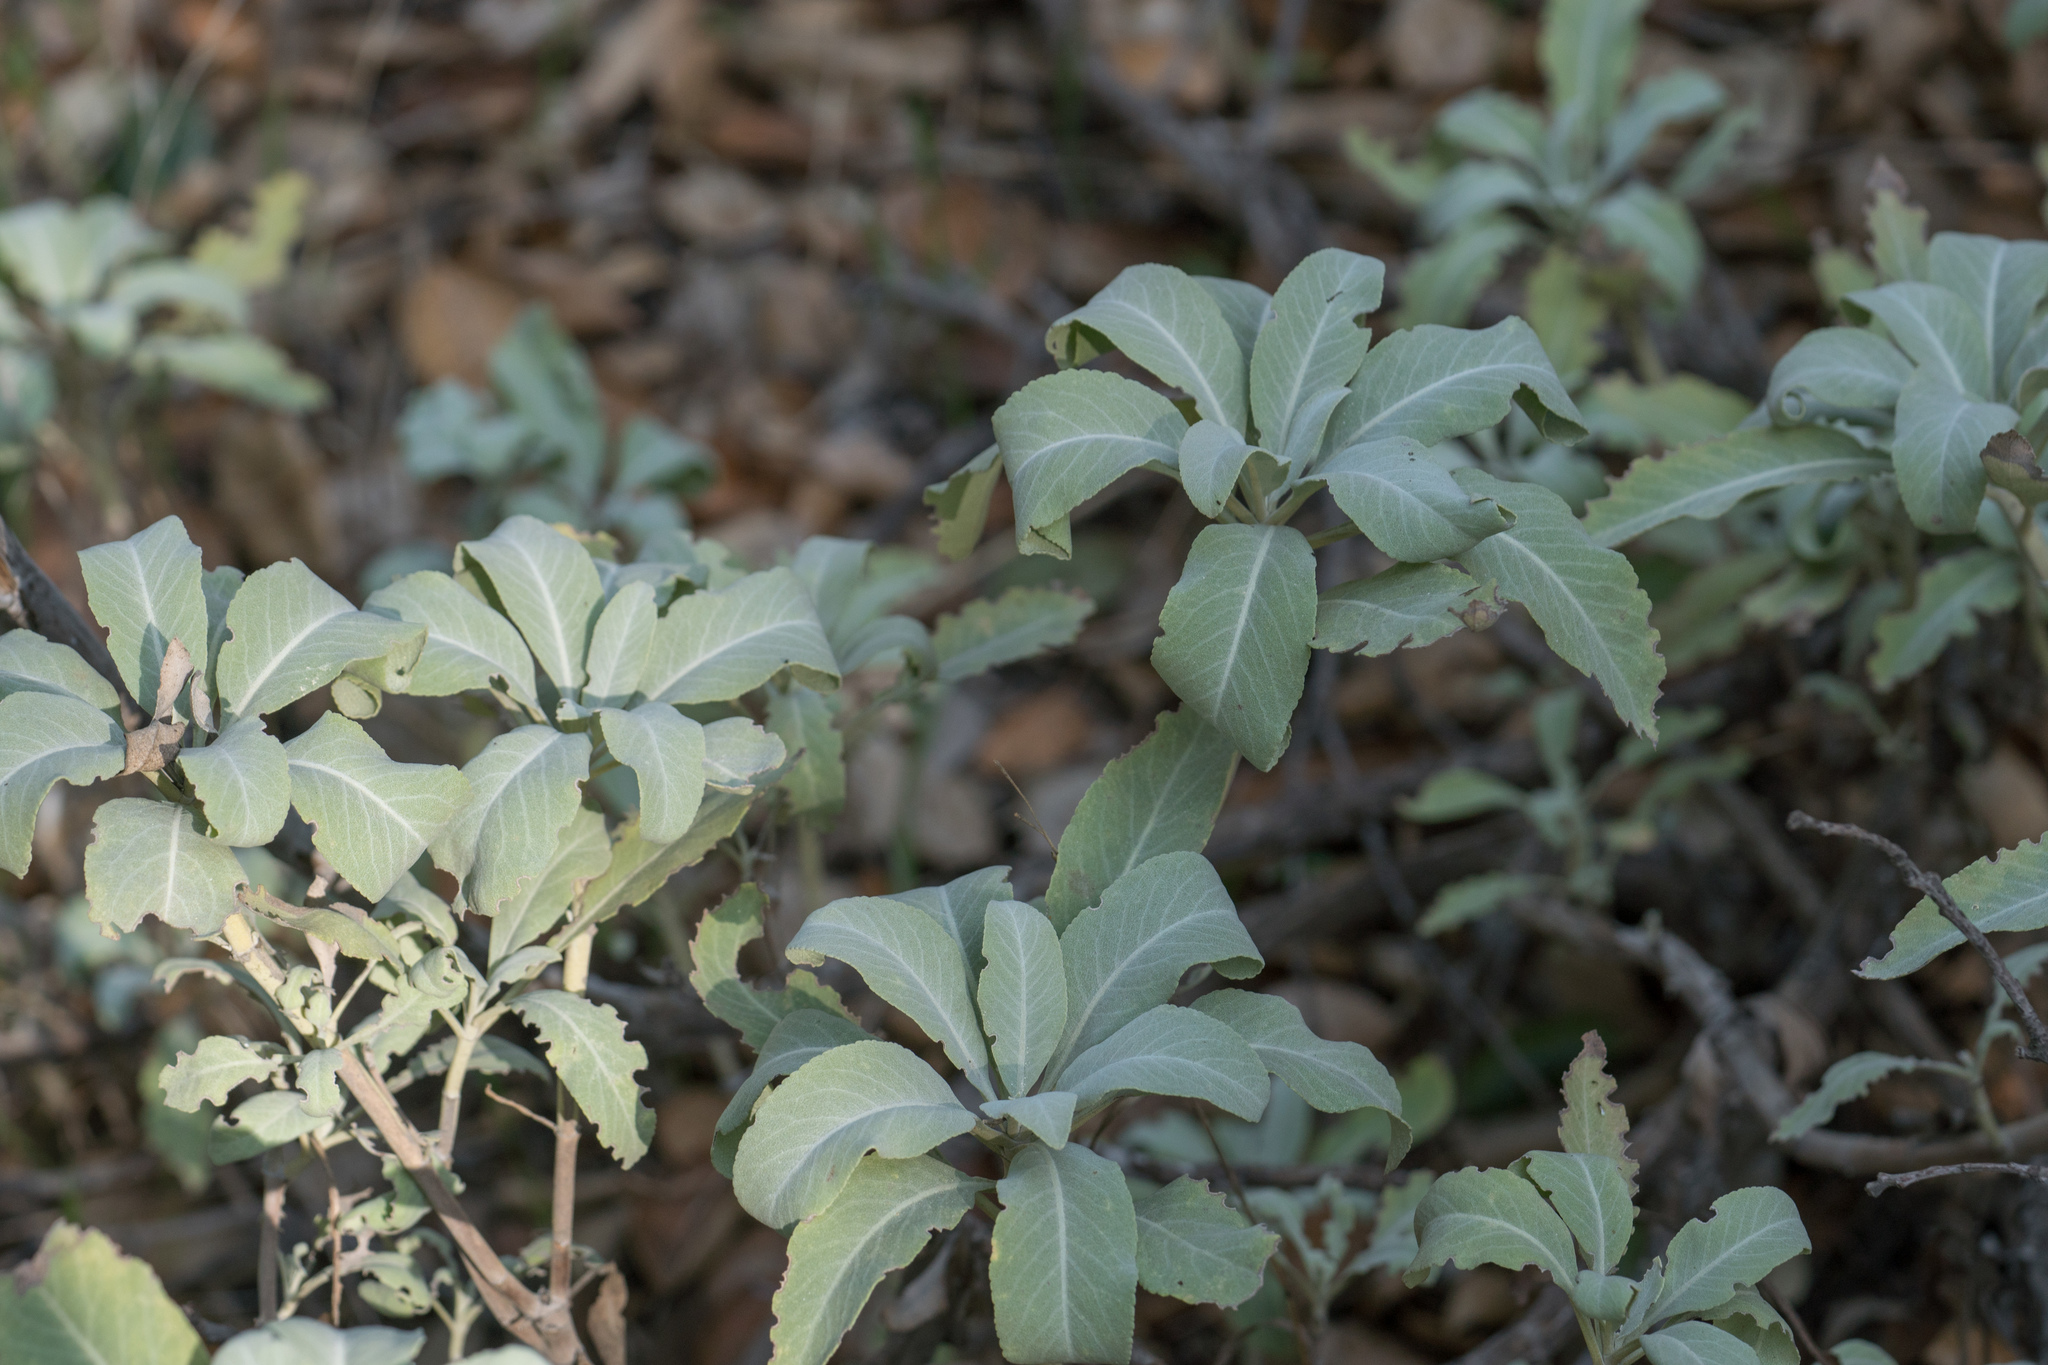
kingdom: Plantae
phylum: Tracheophyta
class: Magnoliopsida
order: Lamiales
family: Lamiaceae
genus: Salvia
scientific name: Salvia apiana
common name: White sage
